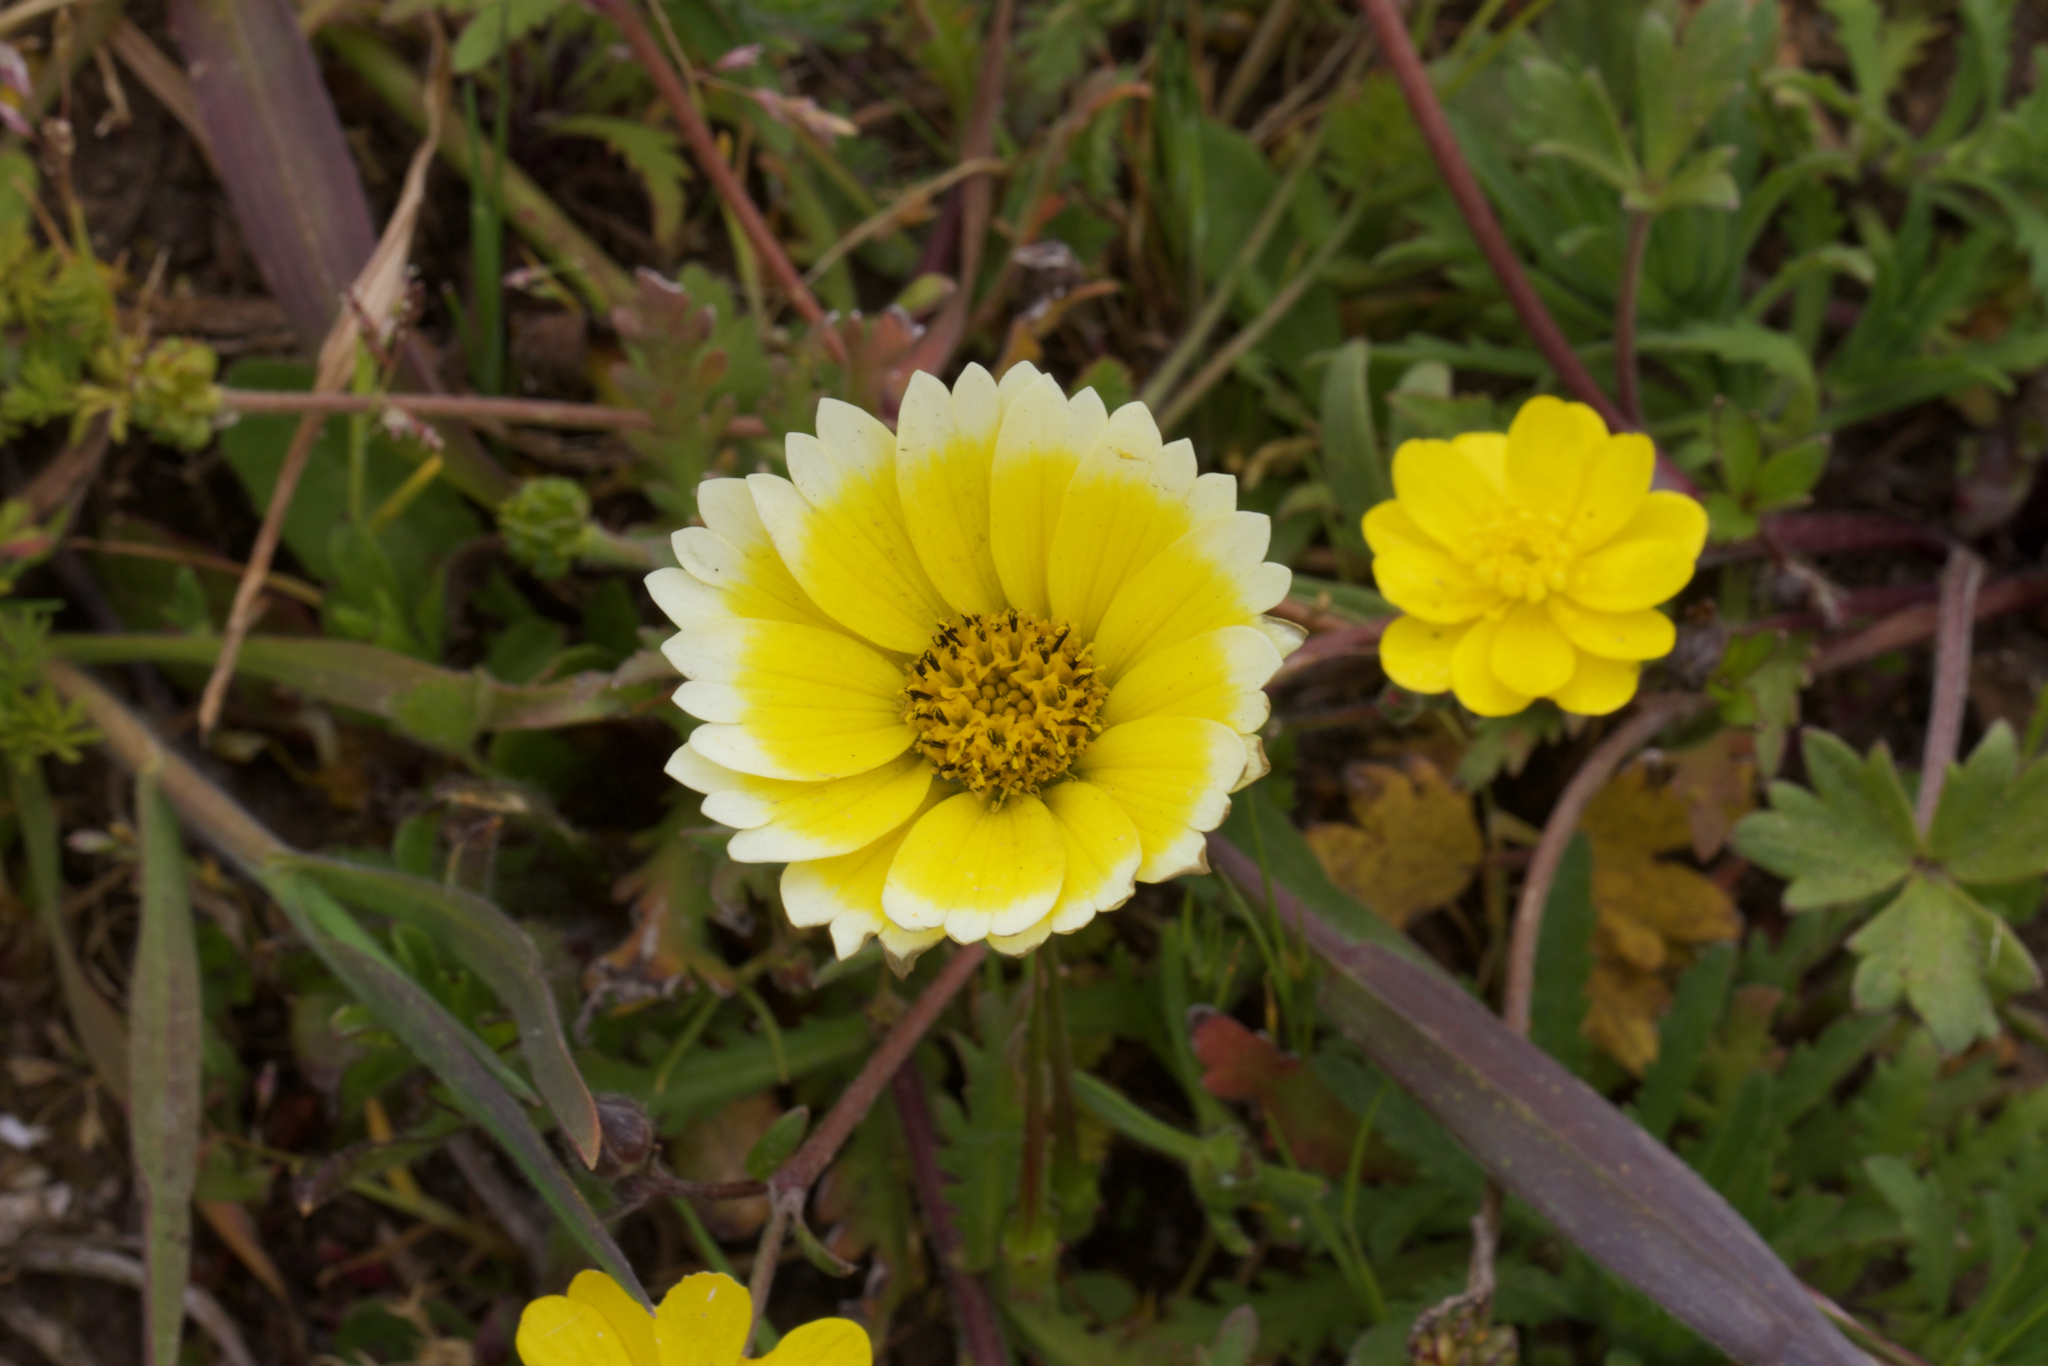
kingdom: Plantae
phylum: Tracheophyta
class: Magnoliopsida
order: Asterales
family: Asteraceae
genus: Layia
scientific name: Layia platyglossa
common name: Tidy-tips
